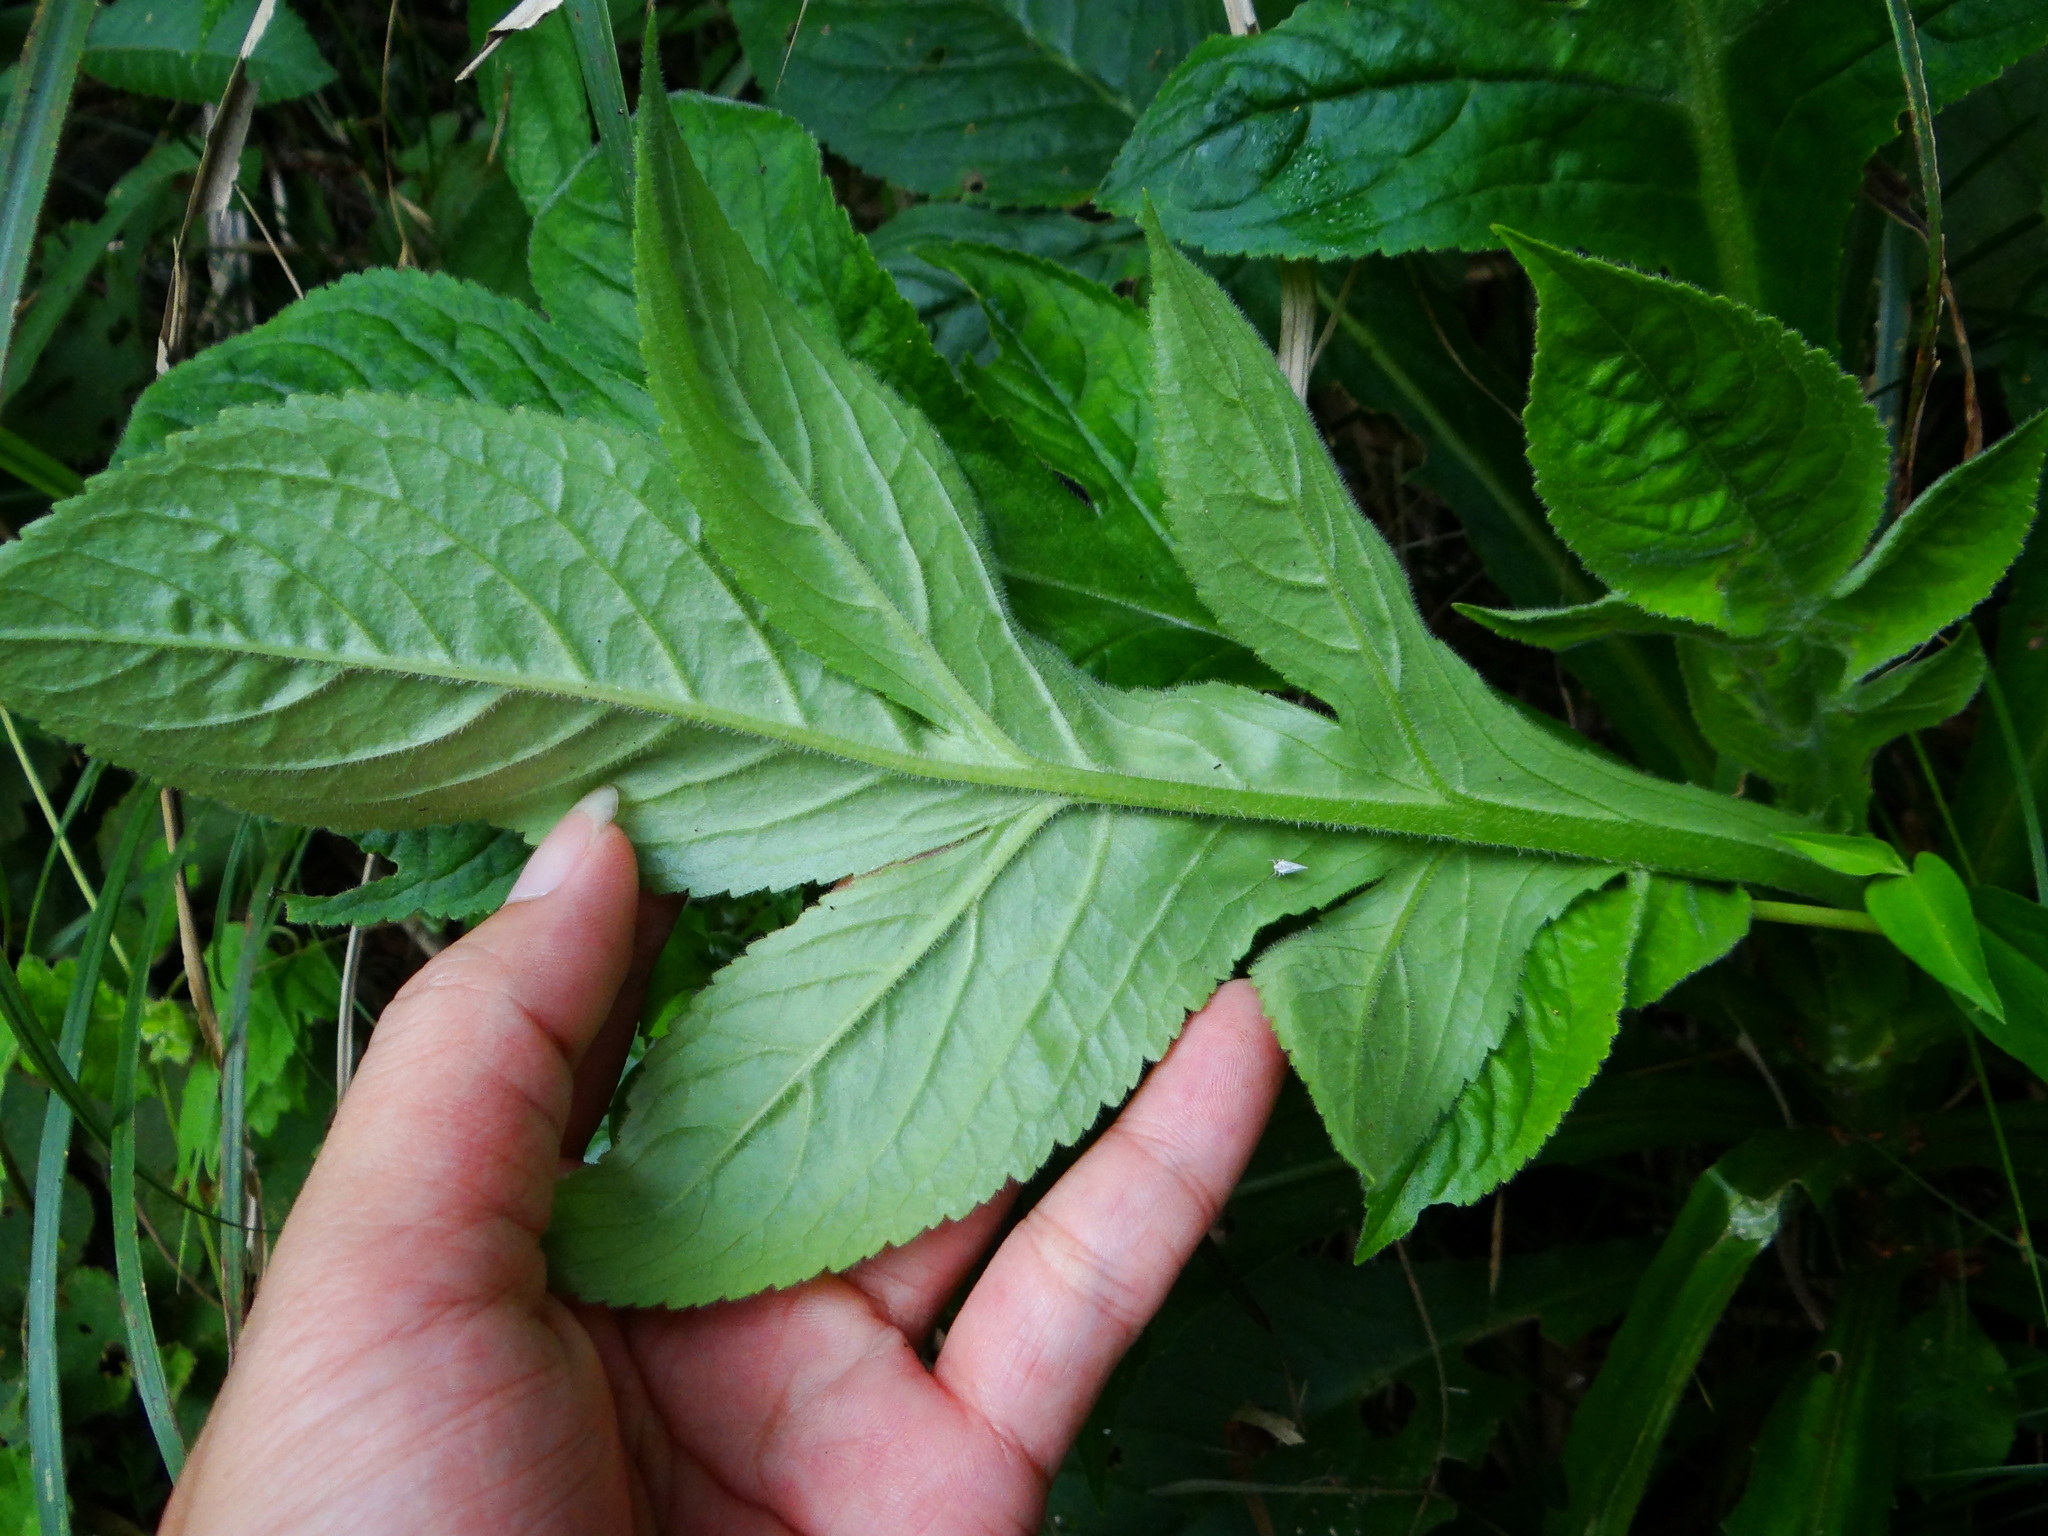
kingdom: Plantae
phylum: Tracheophyta
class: Magnoliopsida
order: Dipsacales
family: Caprifoliaceae
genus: Patrinia
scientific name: Patrinia villosa
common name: Patrinia
